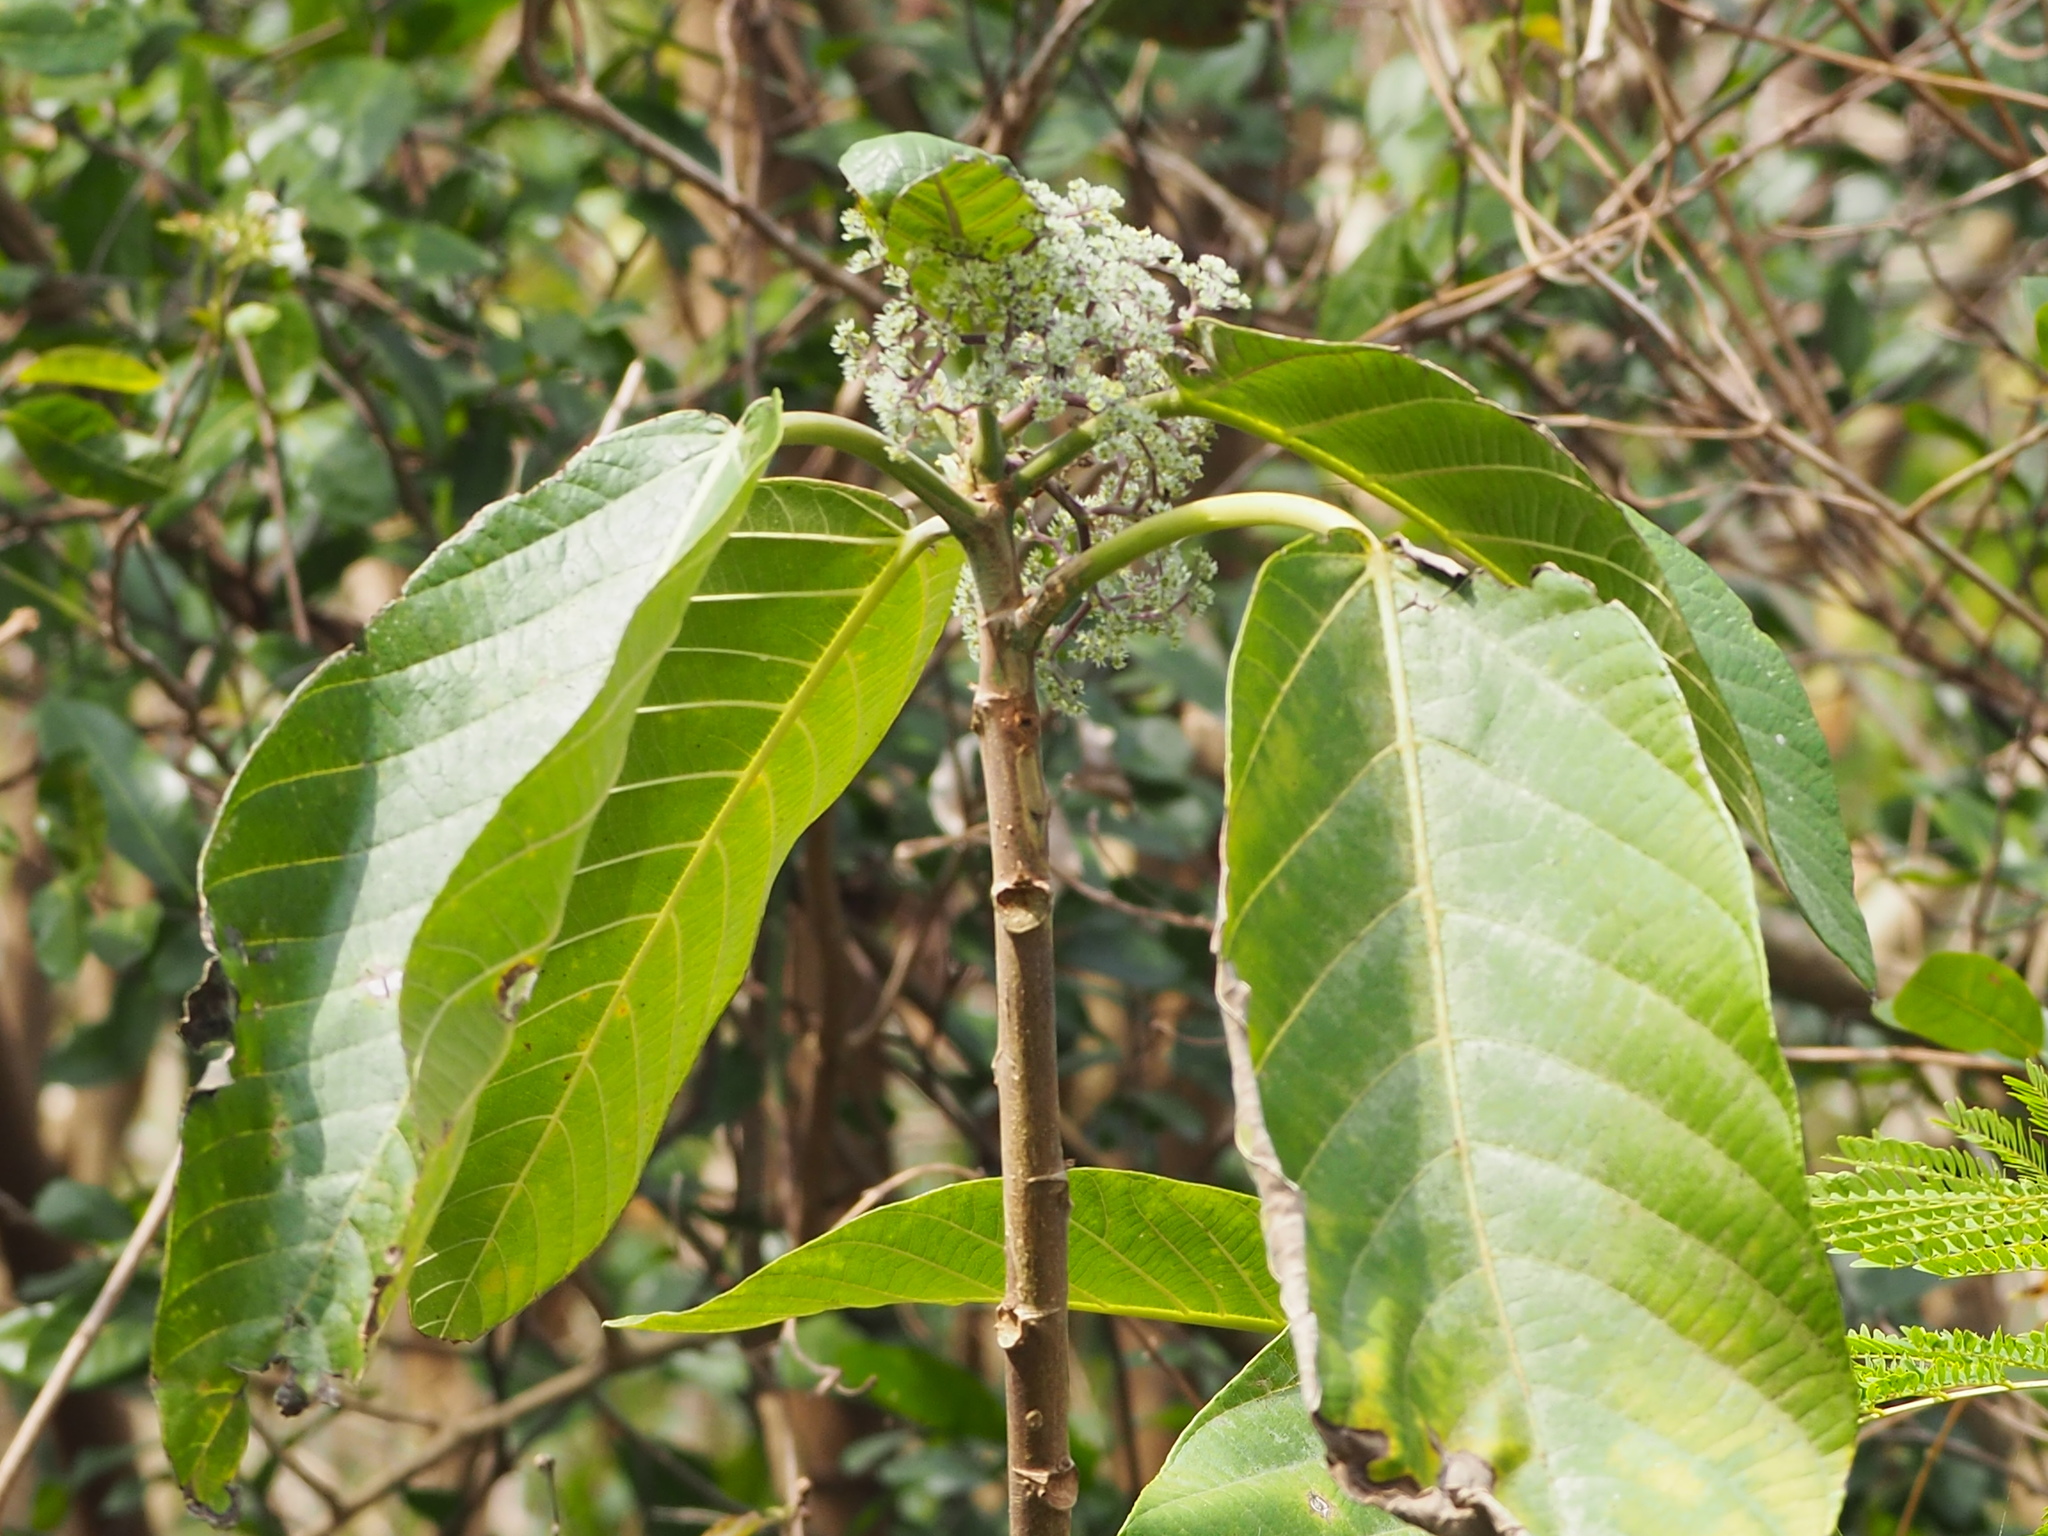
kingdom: Plantae
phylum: Tracheophyta
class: Magnoliopsida
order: Rosales
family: Urticaceae
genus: Dendrocnide
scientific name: Dendrocnide meyeniana
